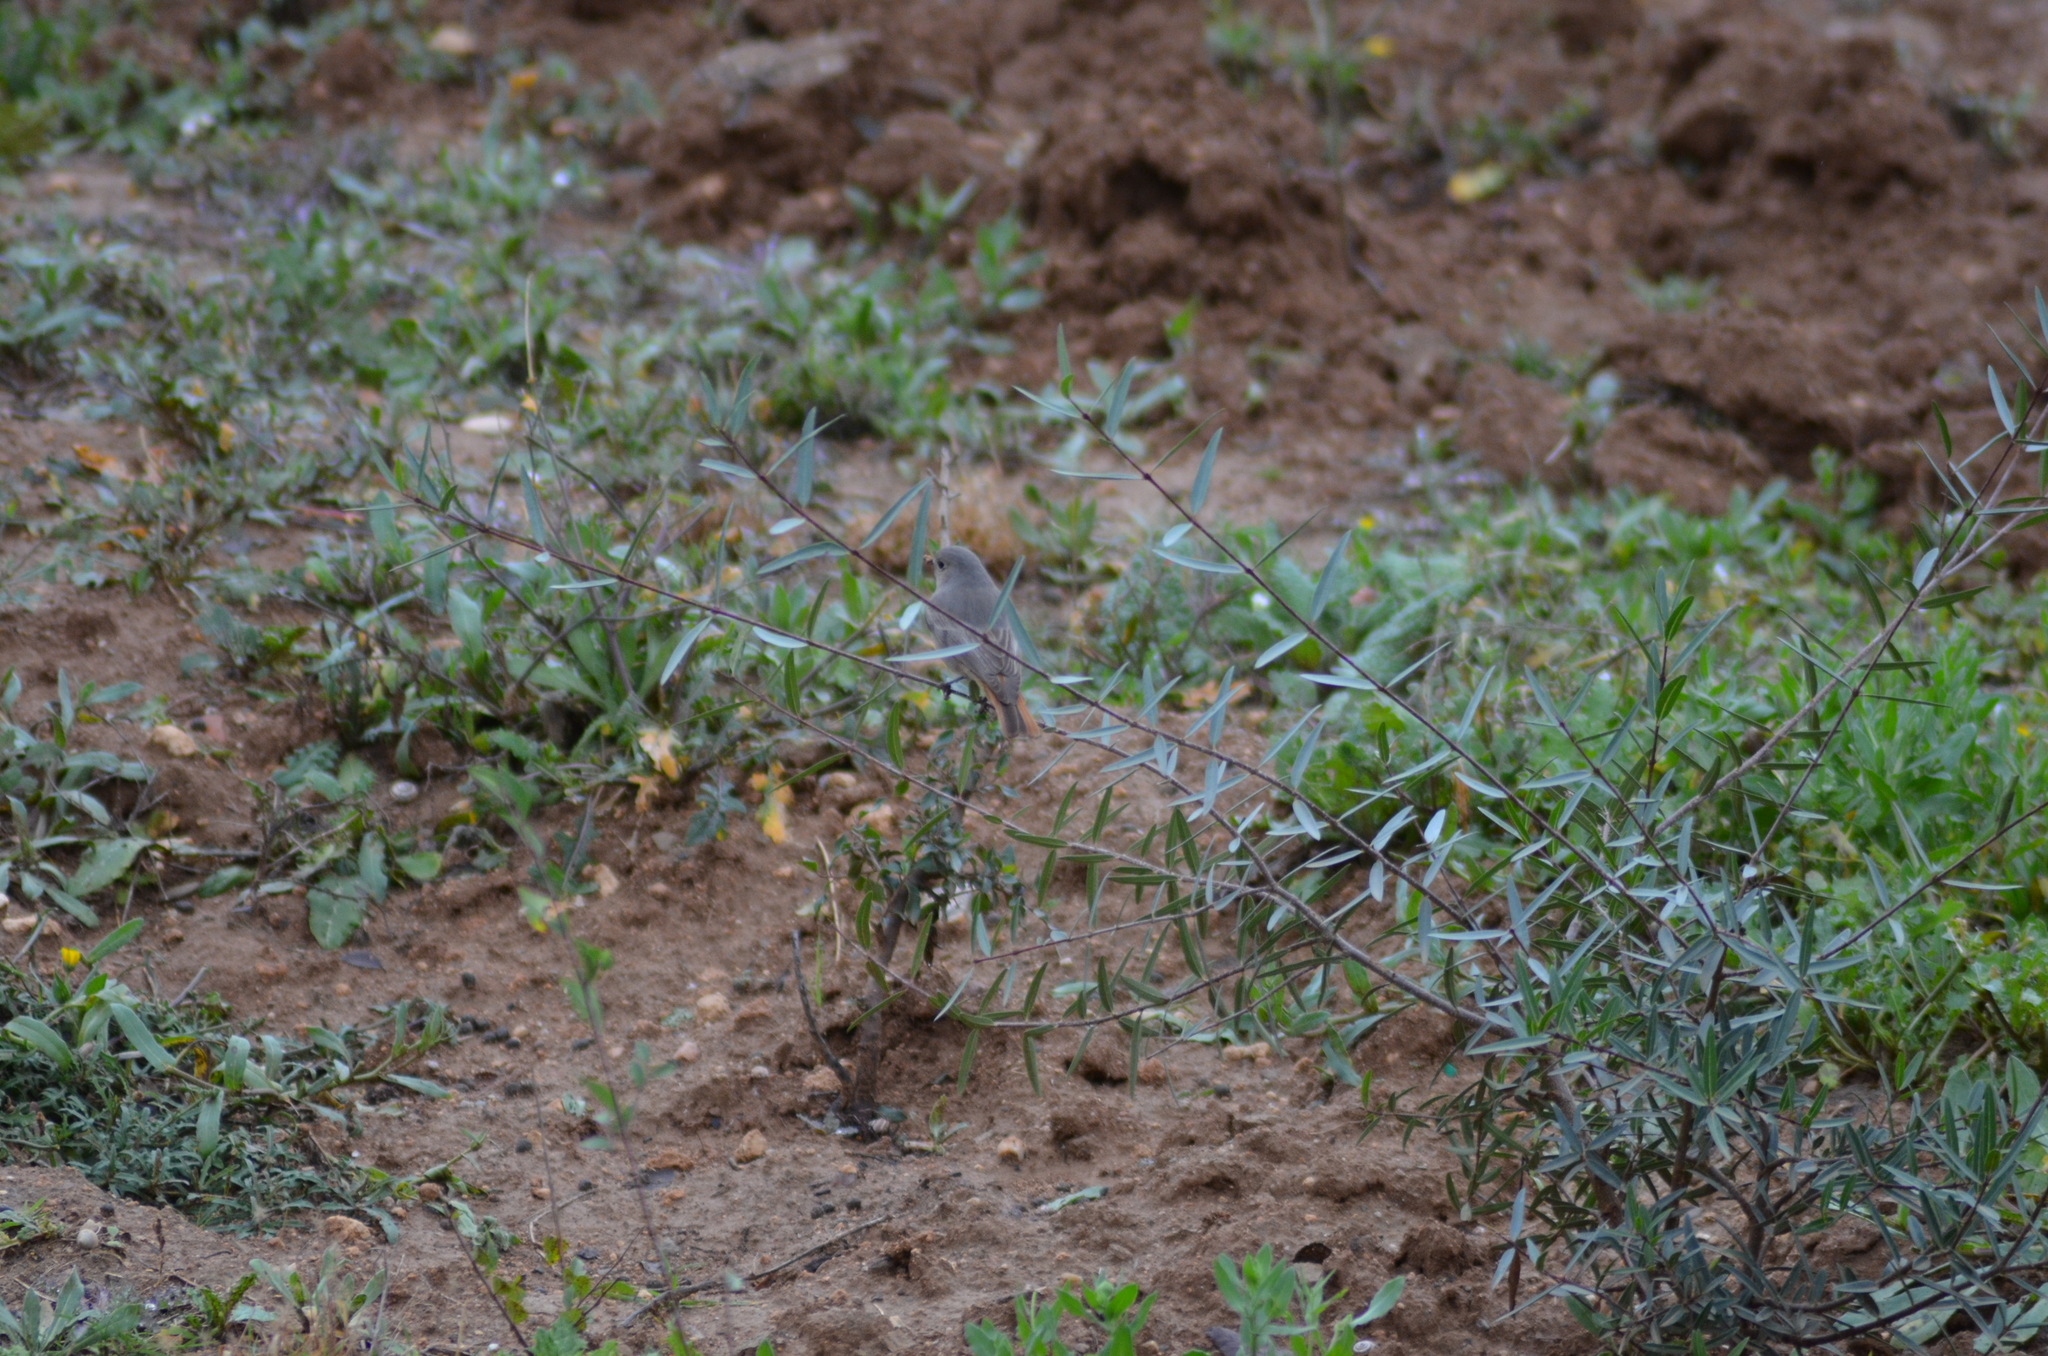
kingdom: Animalia
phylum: Chordata
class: Aves
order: Passeriformes
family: Muscicapidae
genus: Phoenicurus
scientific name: Phoenicurus ochruros
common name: Black redstart
